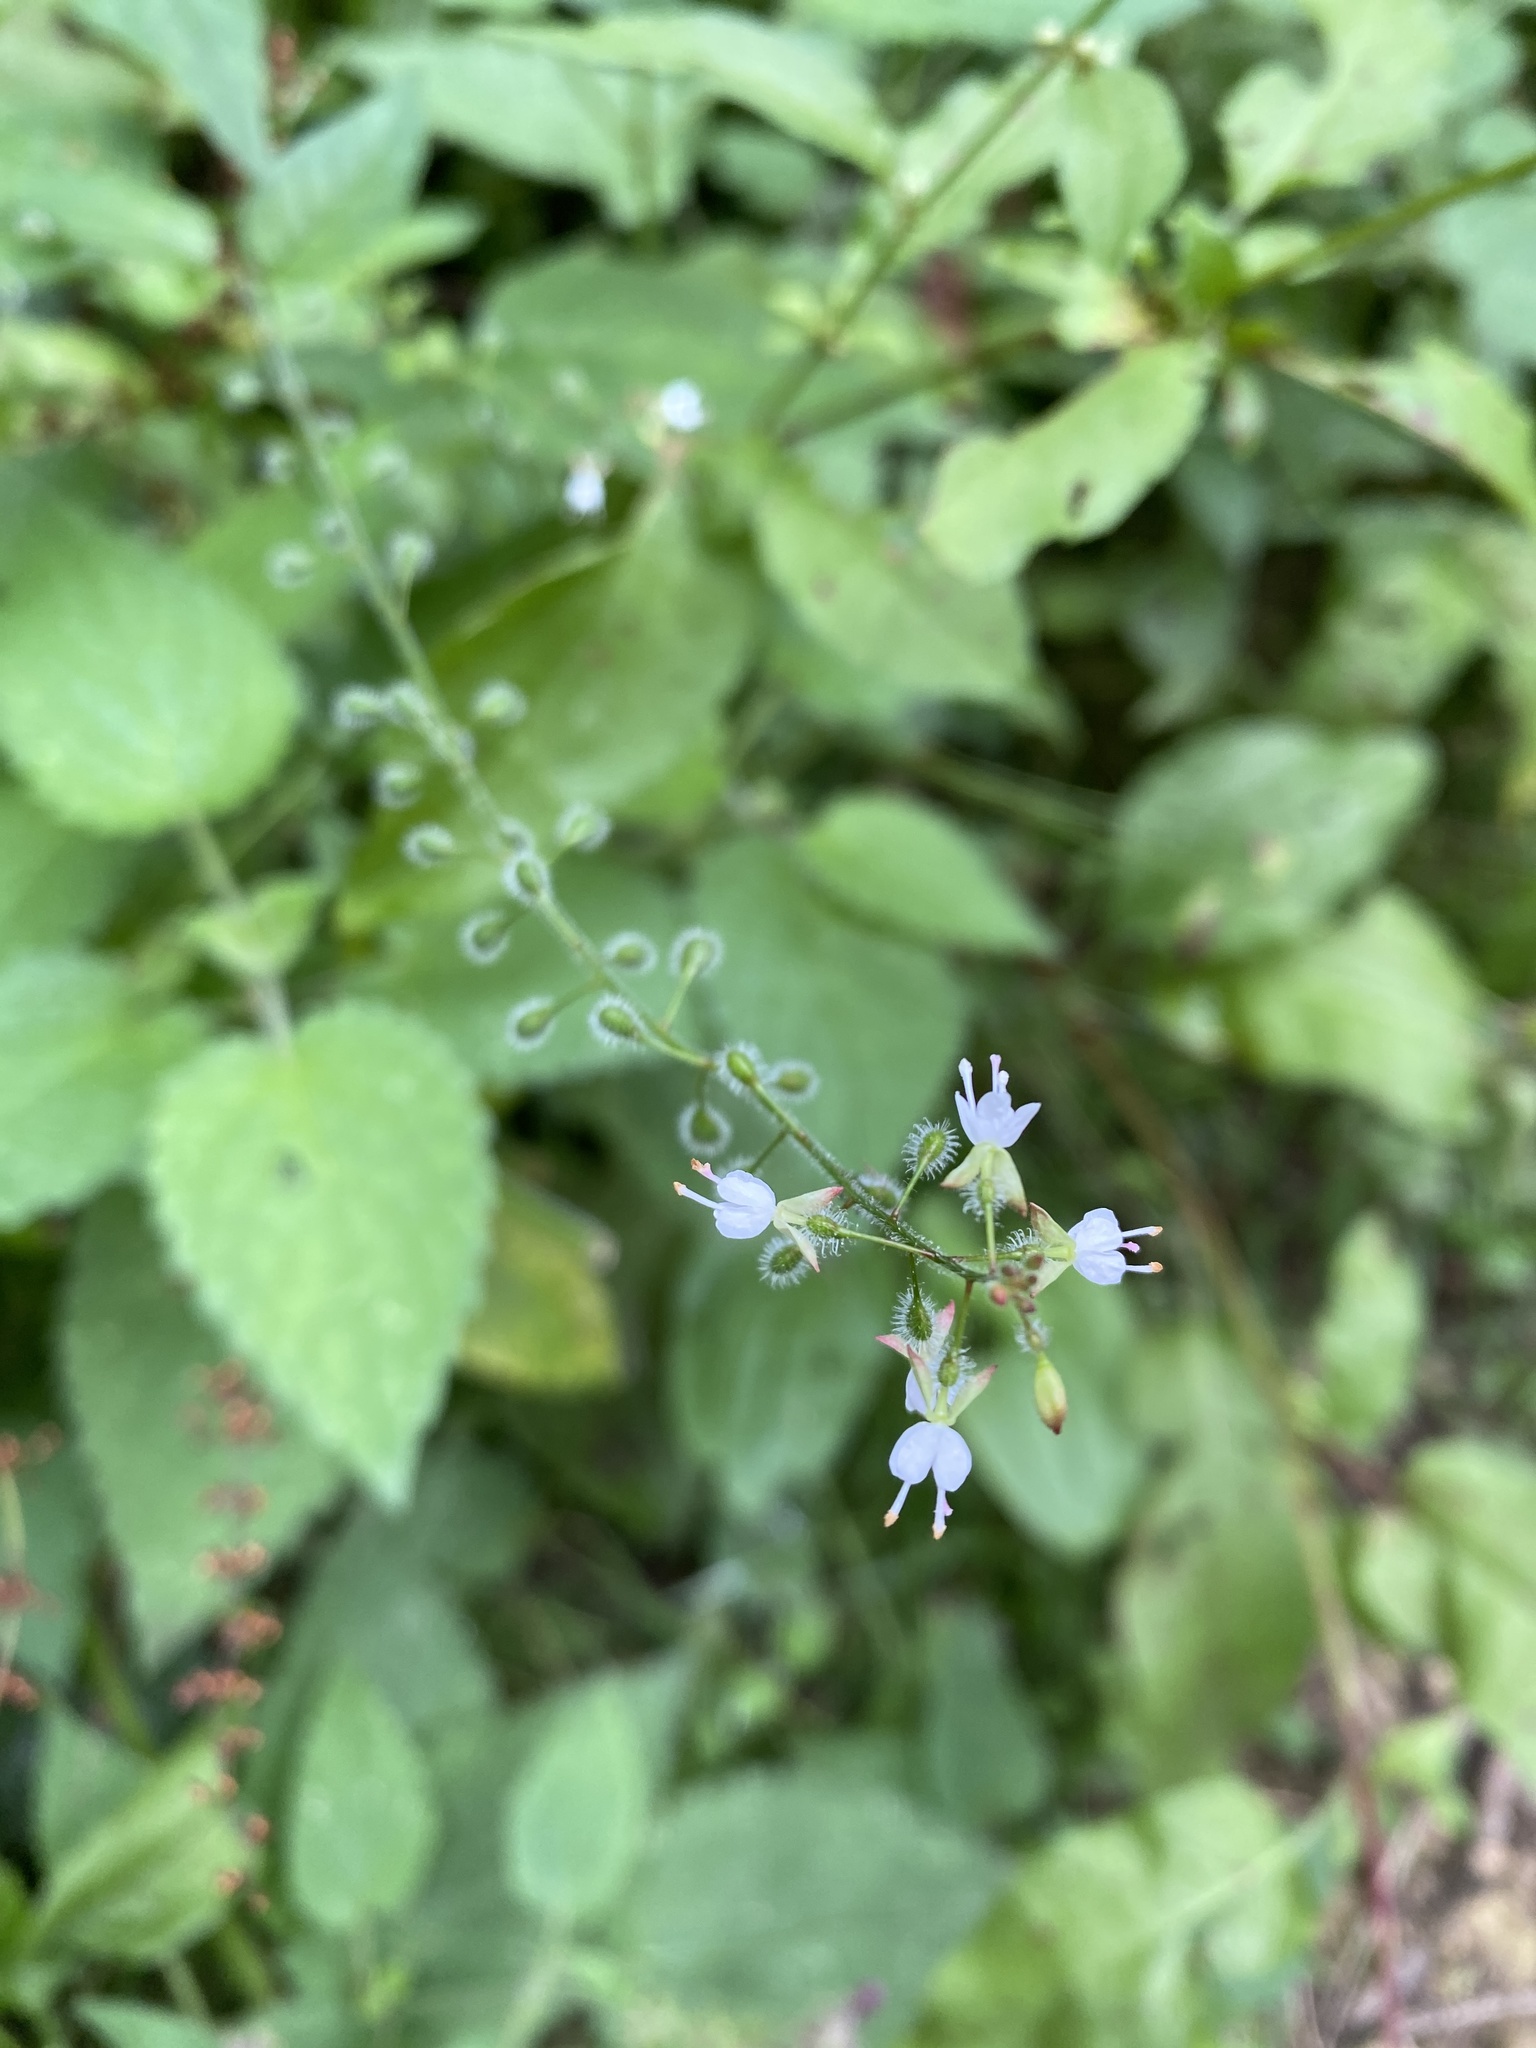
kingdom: Plantae
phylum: Tracheophyta
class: Magnoliopsida
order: Myrtales
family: Onagraceae
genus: Circaea
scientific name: Circaea lutetiana
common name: Enchanter's-nightshade
